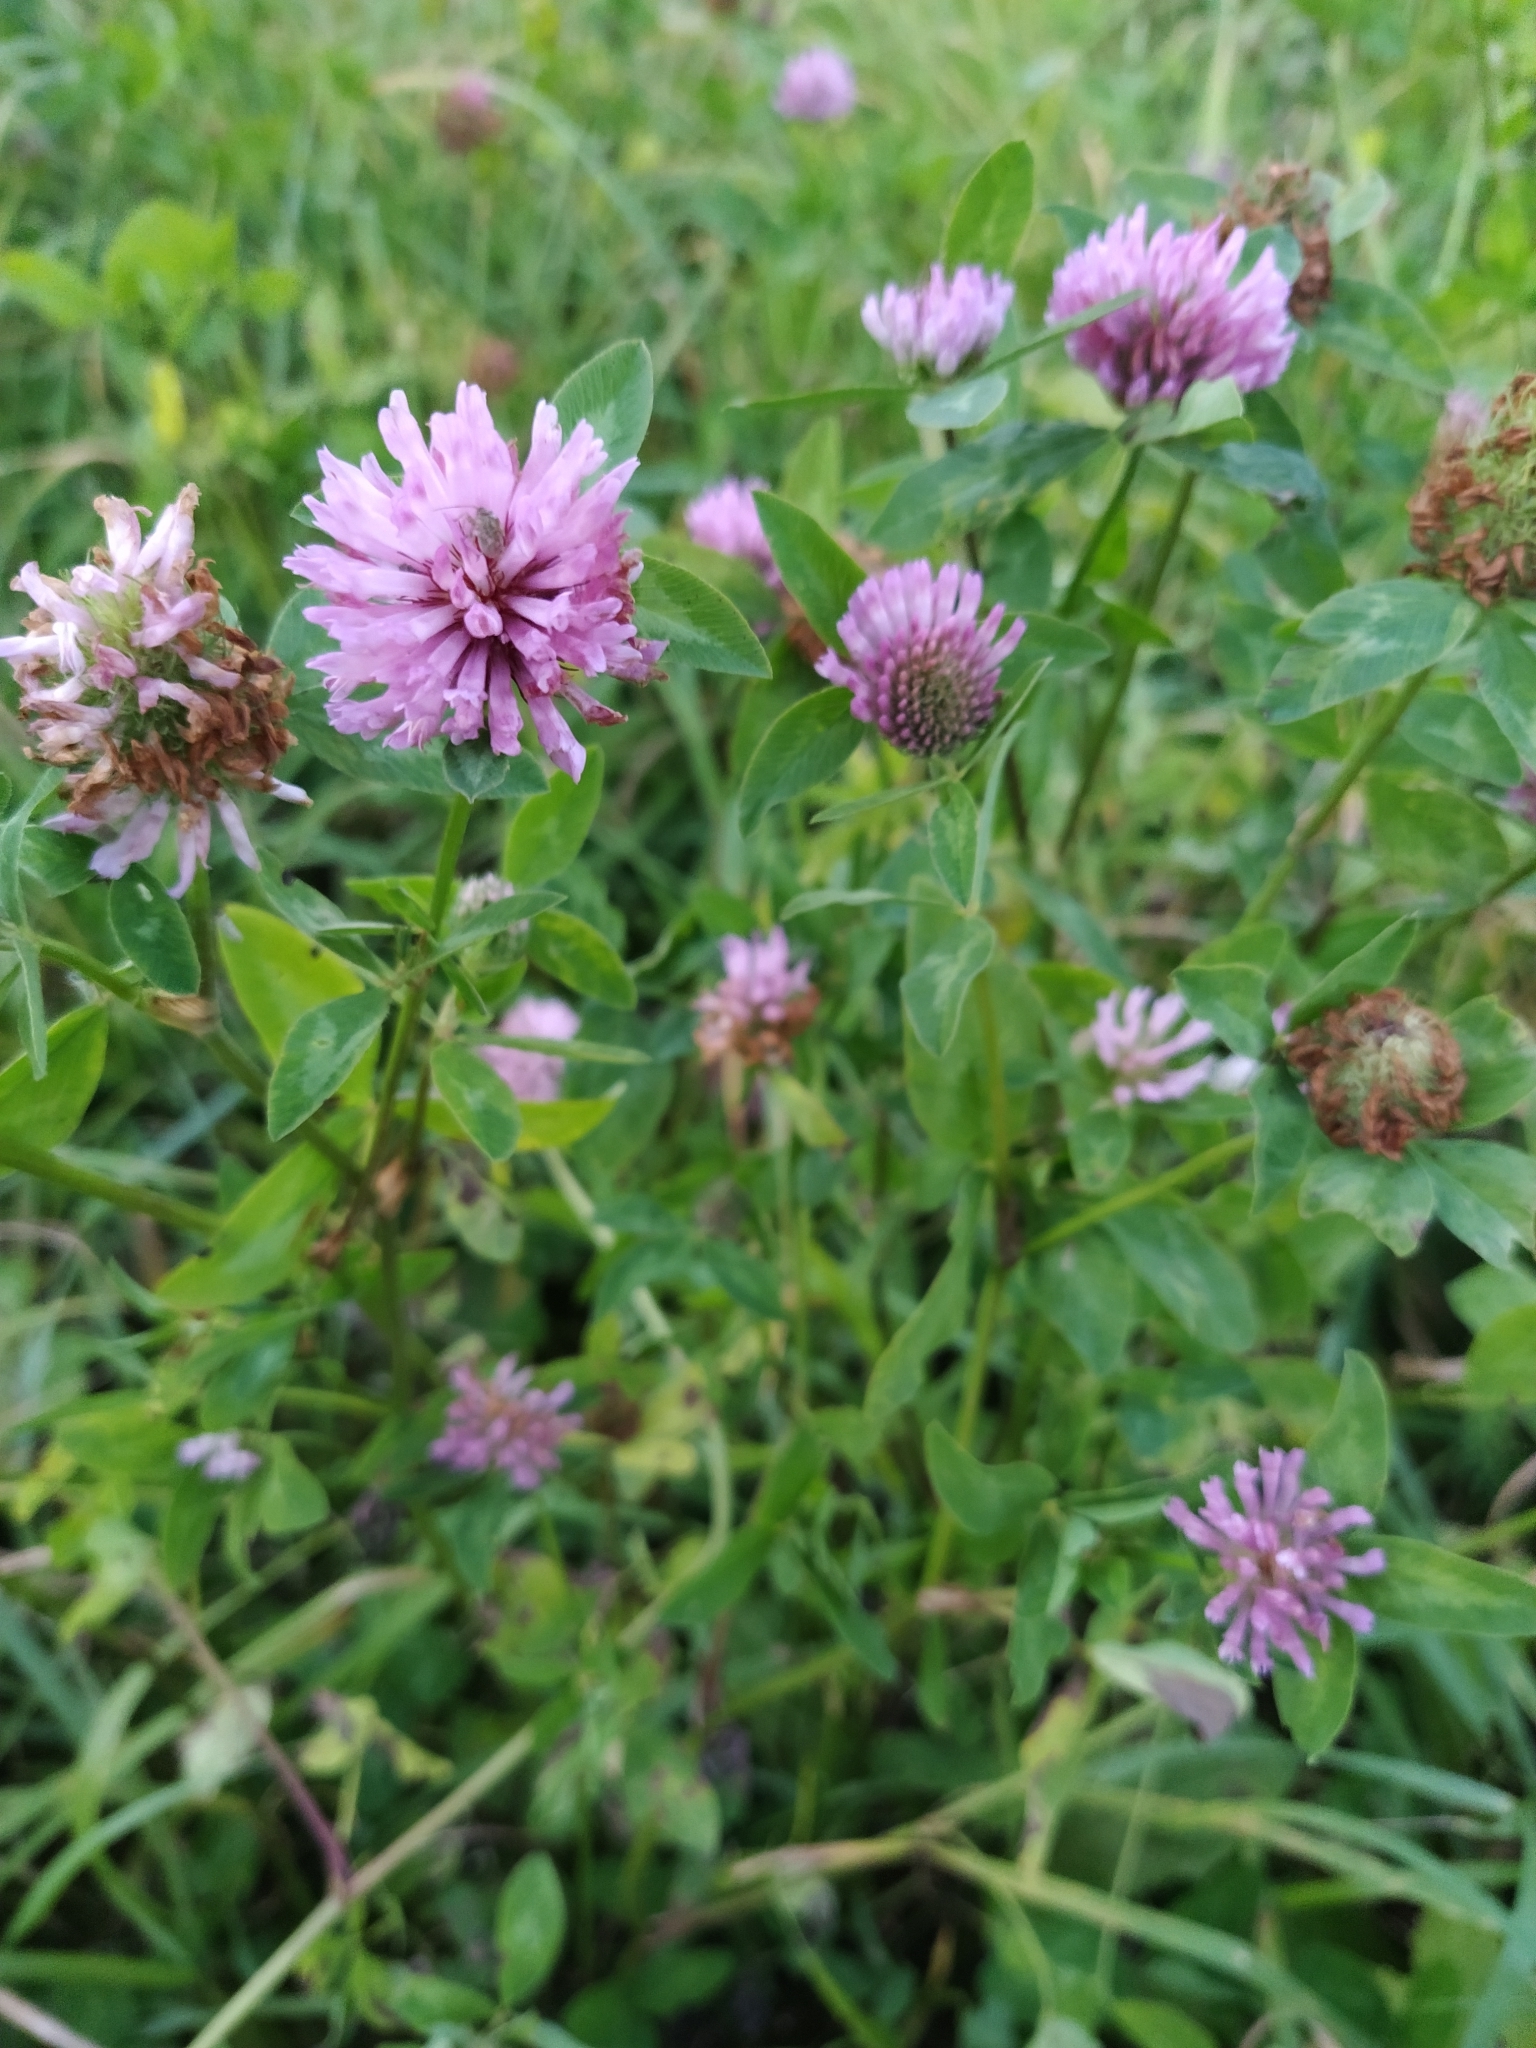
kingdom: Plantae
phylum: Tracheophyta
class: Magnoliopsida
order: Fabales
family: Fabaceae
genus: Trifolium
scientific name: Trifolium pratense
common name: Red clover
